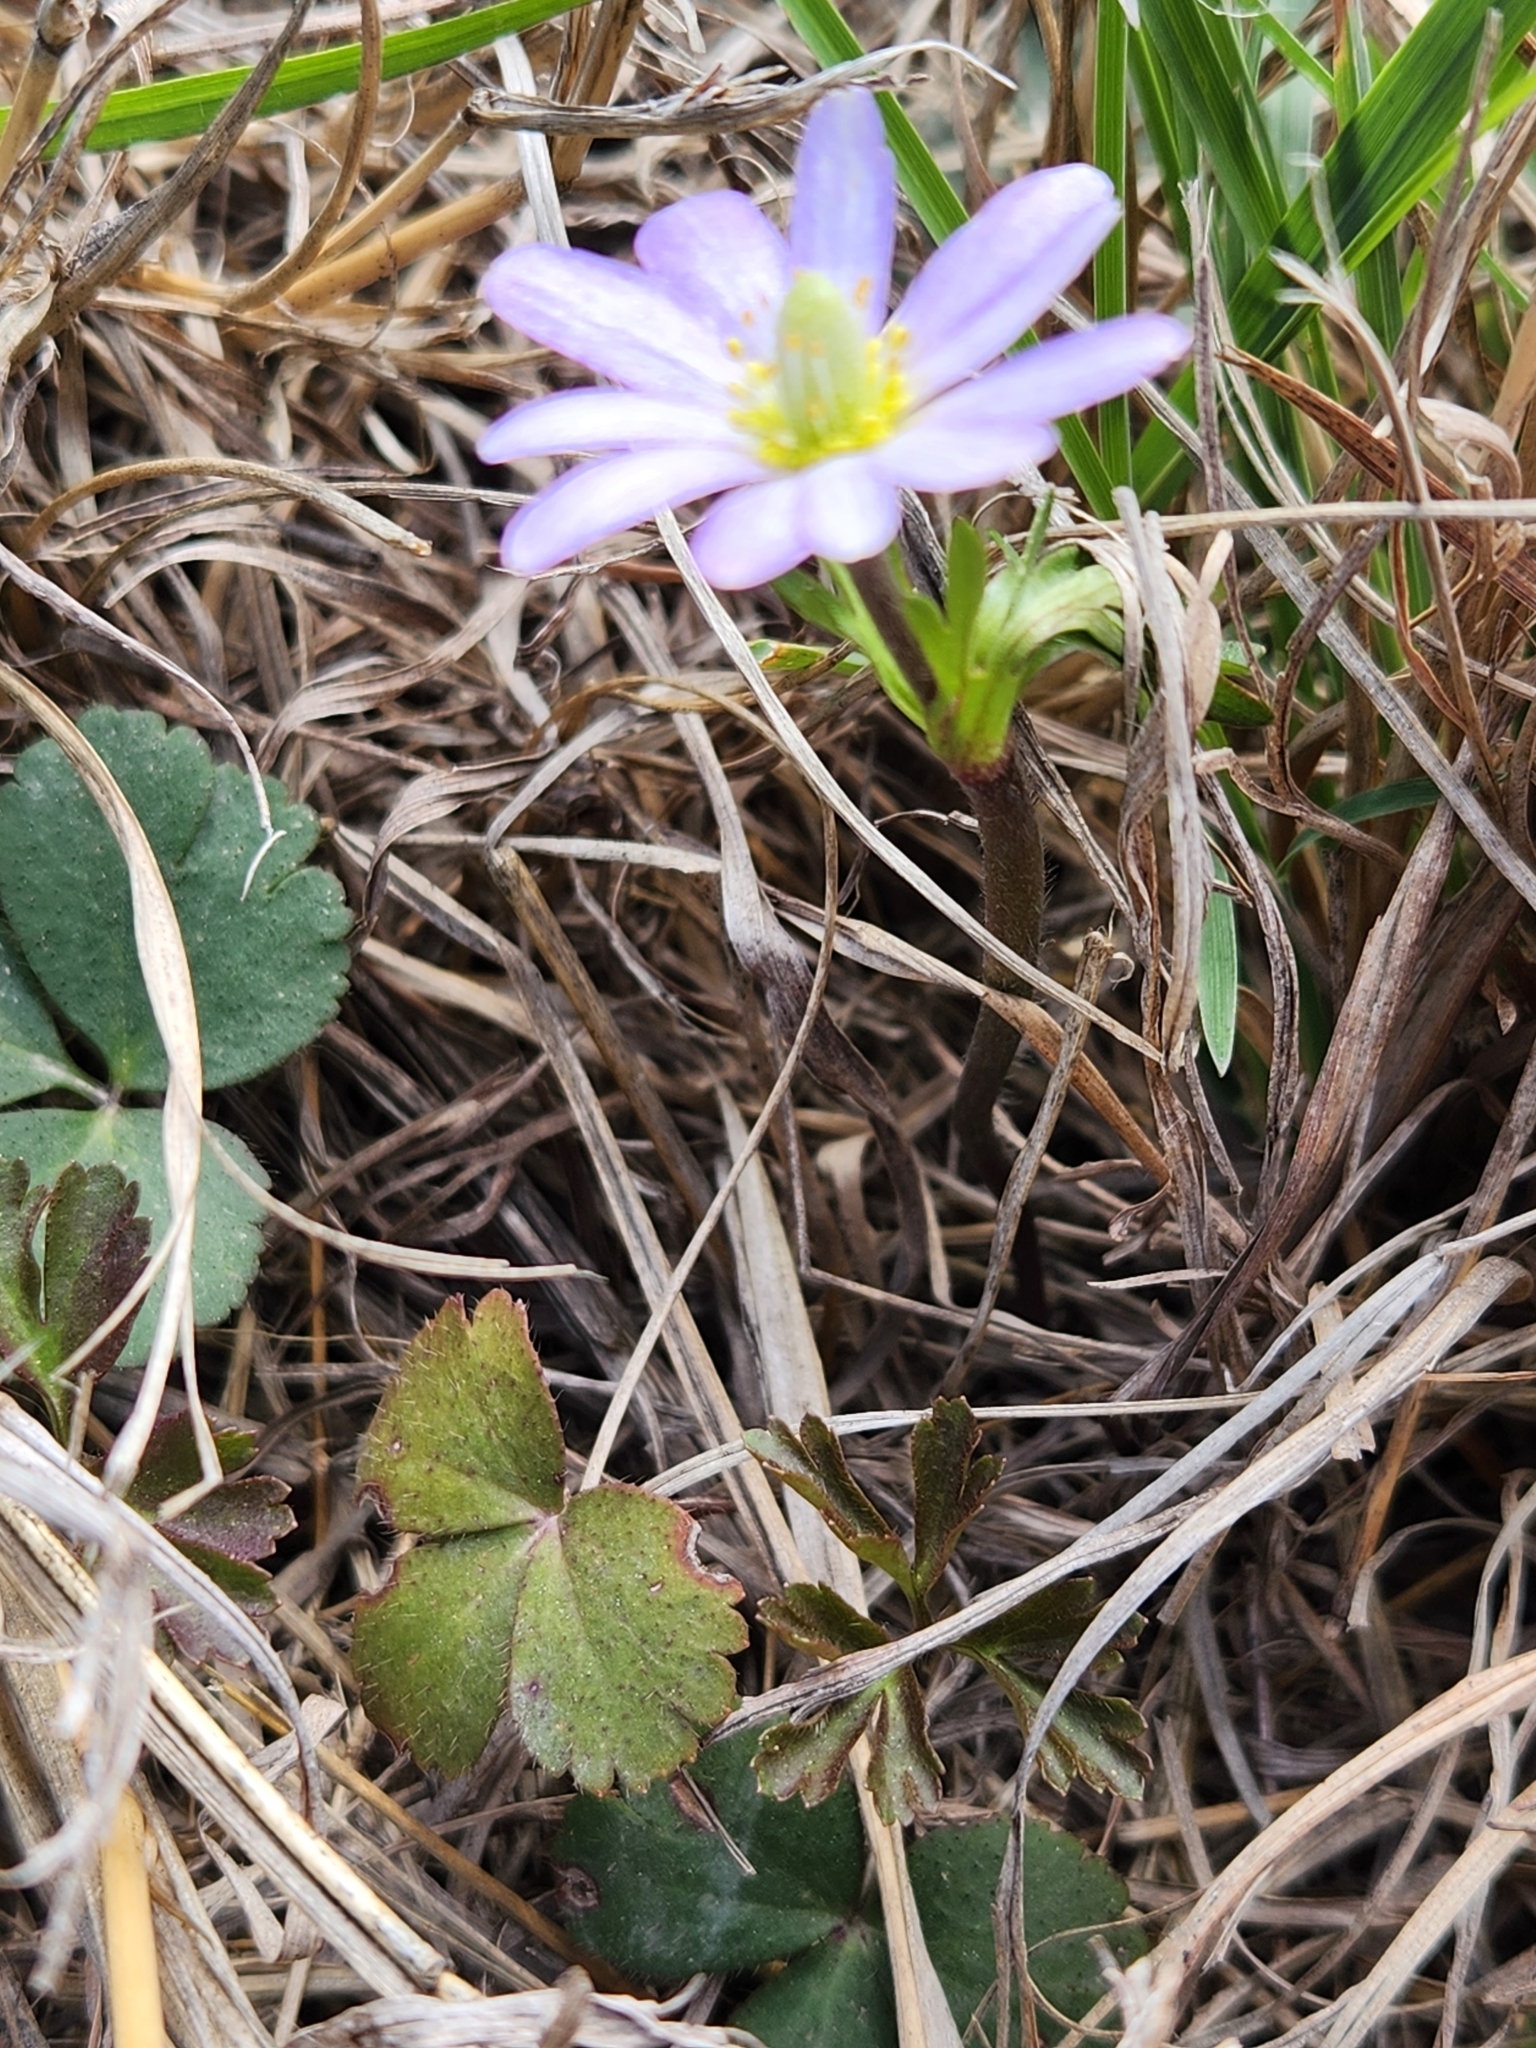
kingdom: Plantae
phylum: Tracheophyta
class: Magnoliopsida
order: Ranunculales
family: Ranunculaceae
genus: Anemone
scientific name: Anemone berlandieri
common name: Ten-petal anemone
